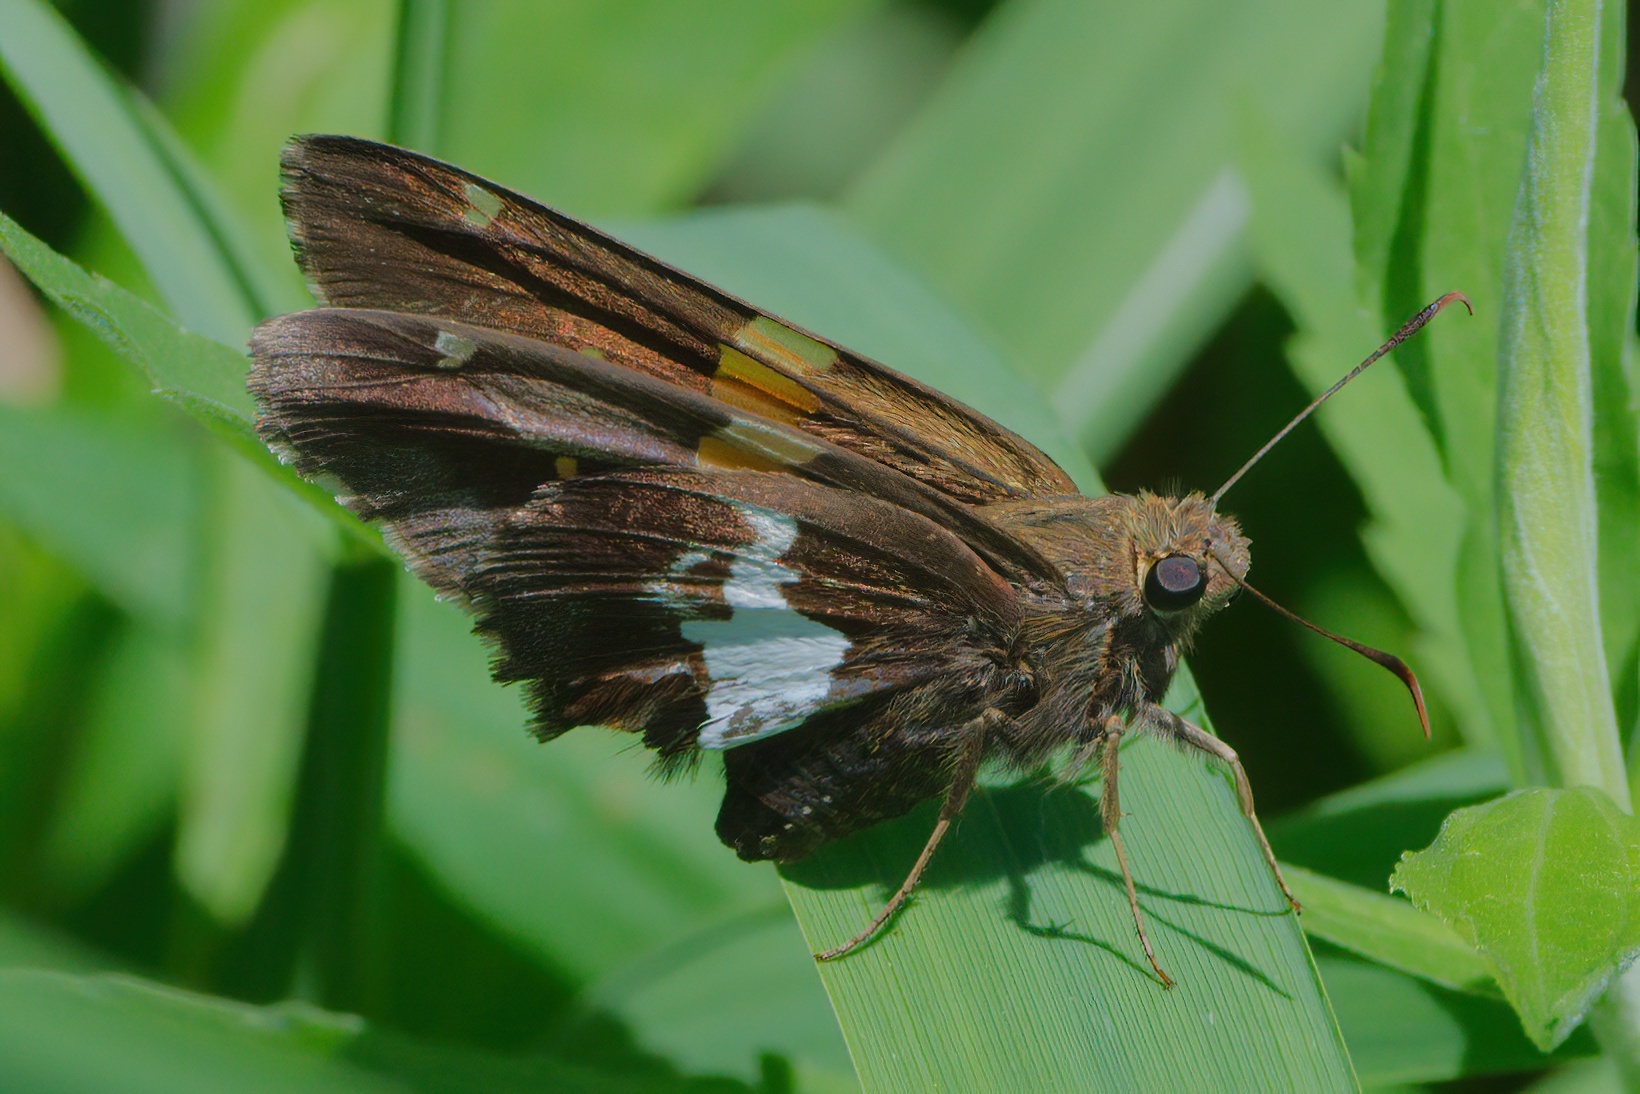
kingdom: Animalia
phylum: Arthropoda
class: Insecta
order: Lepidoptera
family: Hesperiidae
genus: Epargyreus
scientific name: Epargyreus clarus
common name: Silver-spotted skipper
